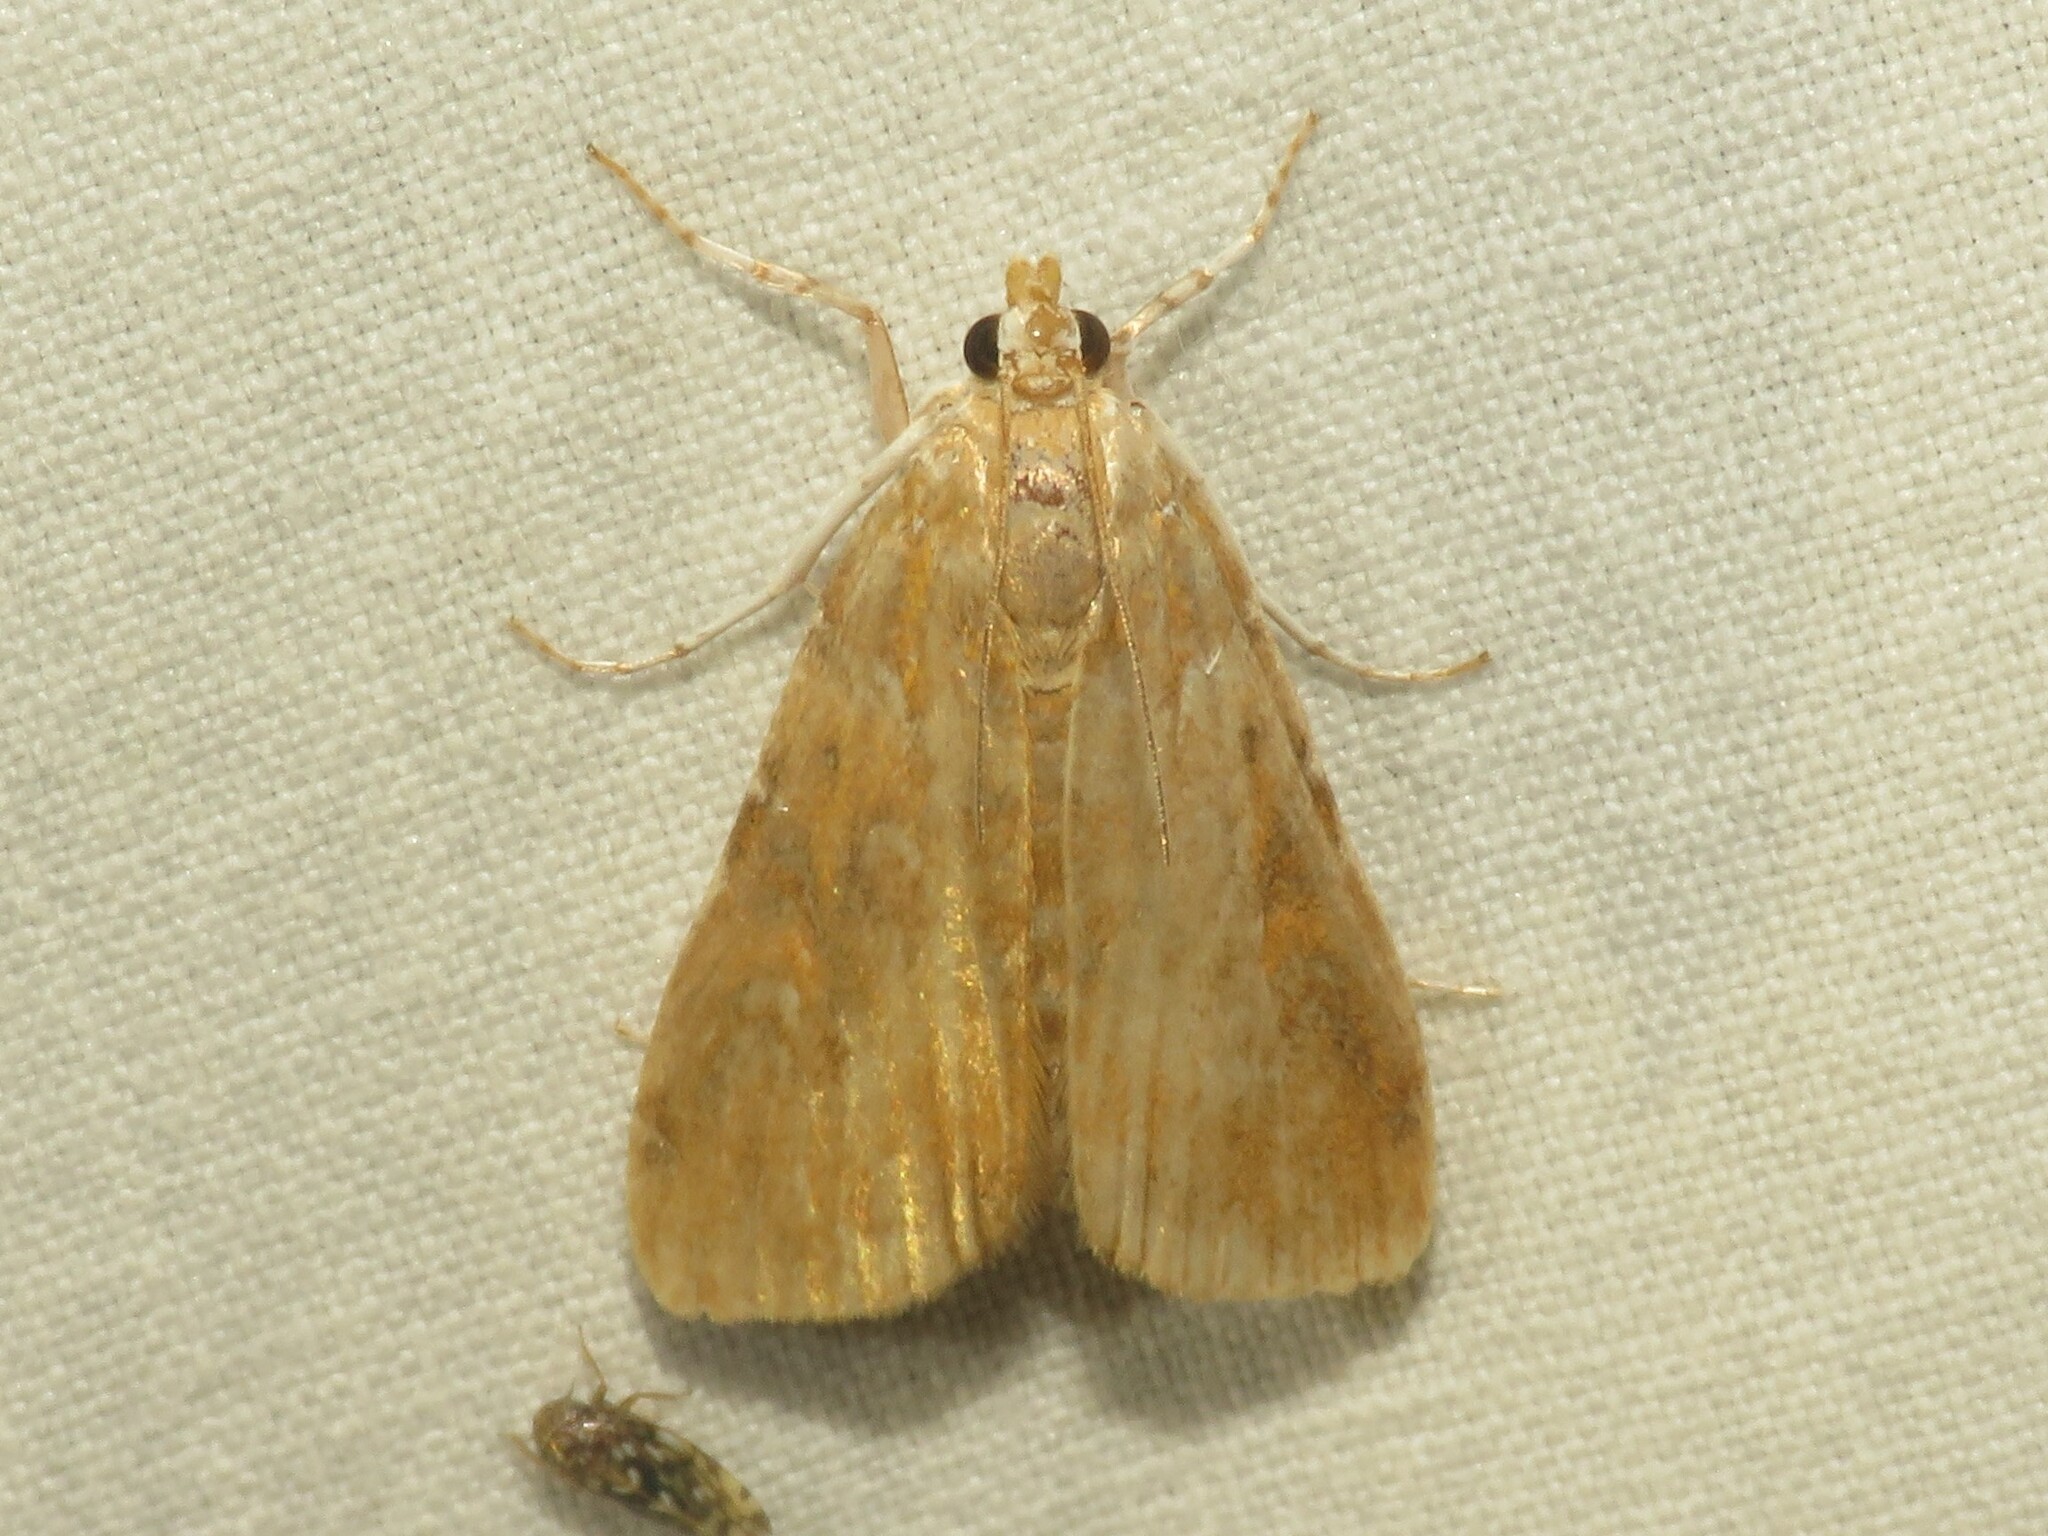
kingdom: Animalia
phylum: Arthropoda
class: Insecta
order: Lepidoptera
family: Crambidae
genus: Elophila
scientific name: Elophila gyralis
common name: Waterlily borer moth
